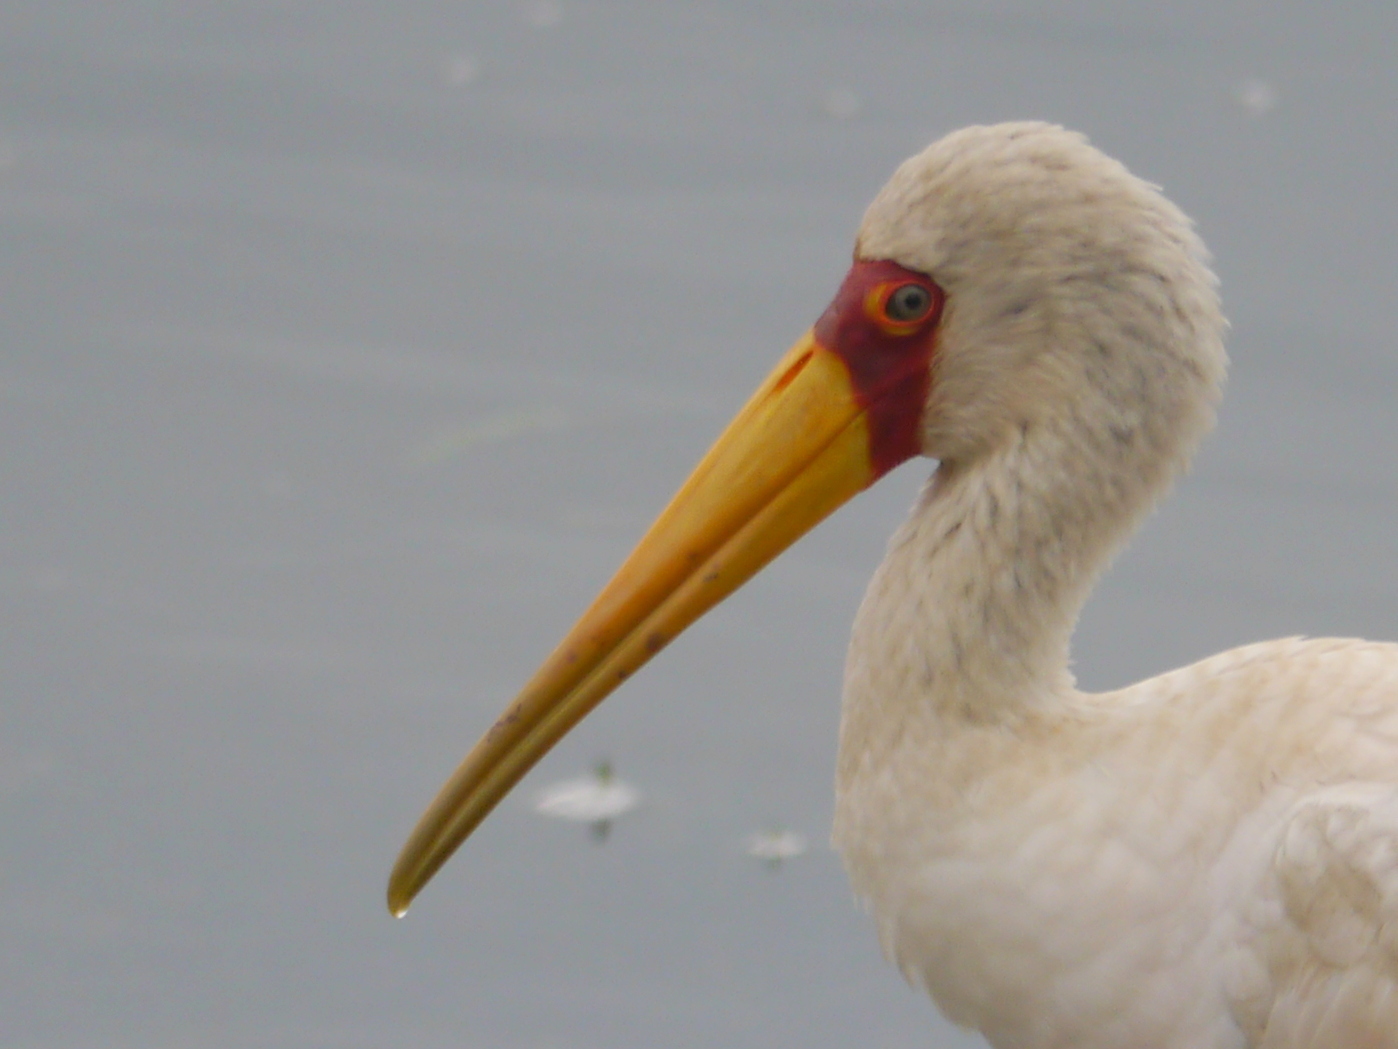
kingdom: Animalia
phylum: Chordata
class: Aves
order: Ciconiiformes
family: Ciconiidae
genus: Mycteria
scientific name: Mycteria ibis
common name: Yellow-billed stork
